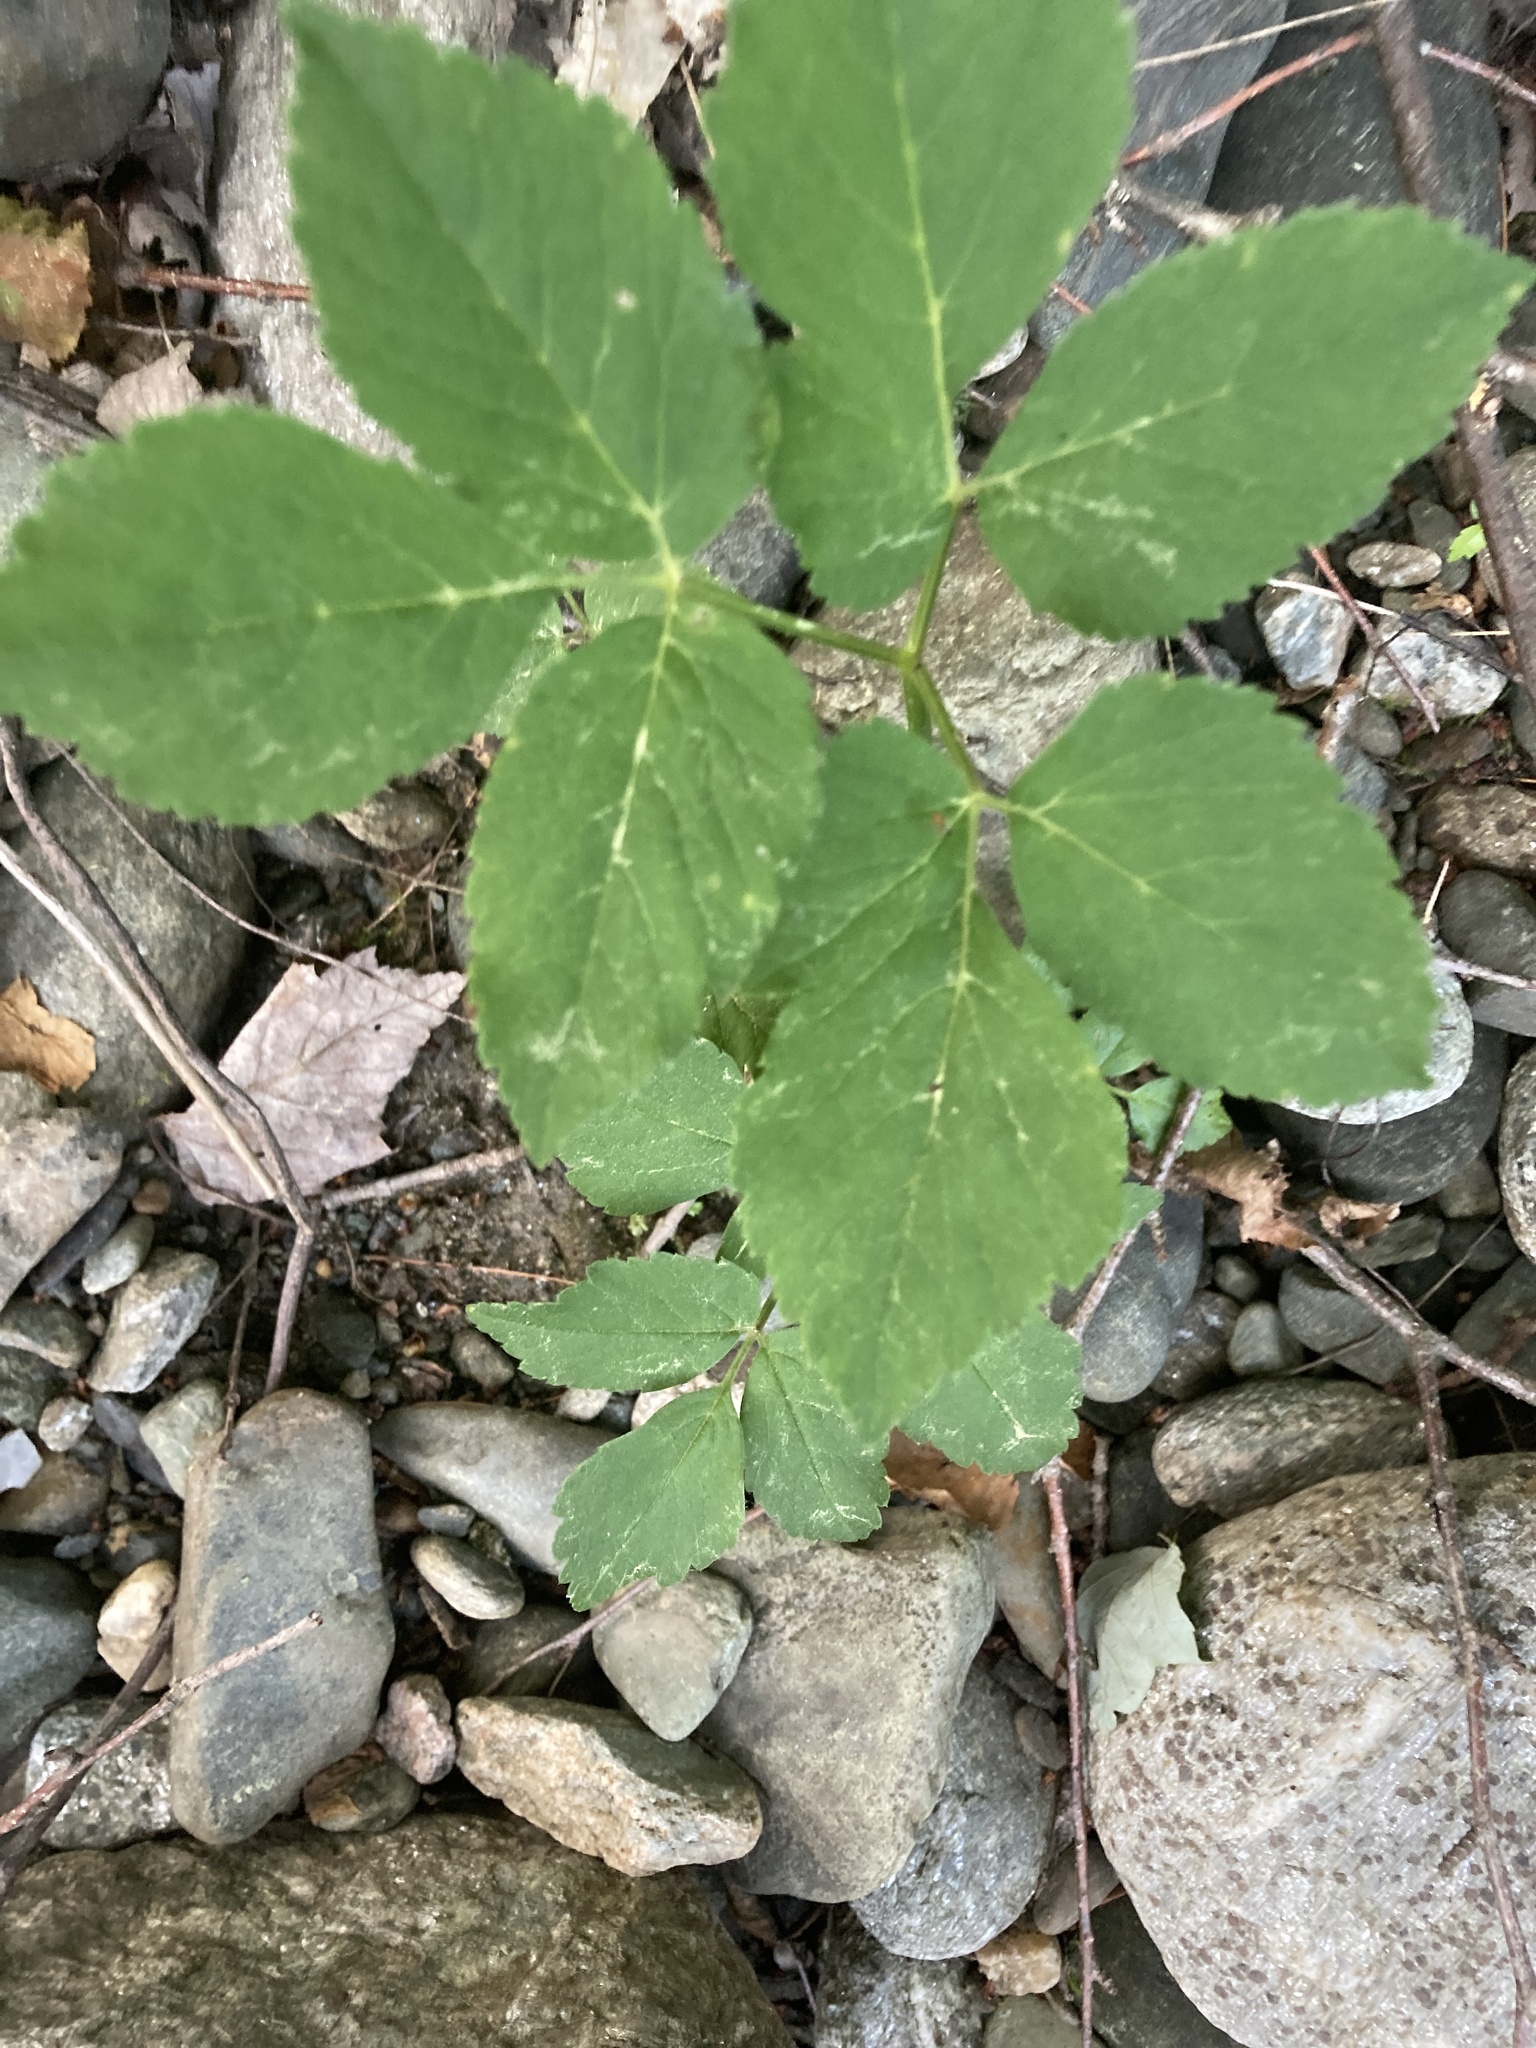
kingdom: Plantae
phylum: Tracheophyta
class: Magnoliopsida
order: Apiales
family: Apiaceae
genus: Aegopodium
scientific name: Aegopodium podagraria
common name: Ground-elder
